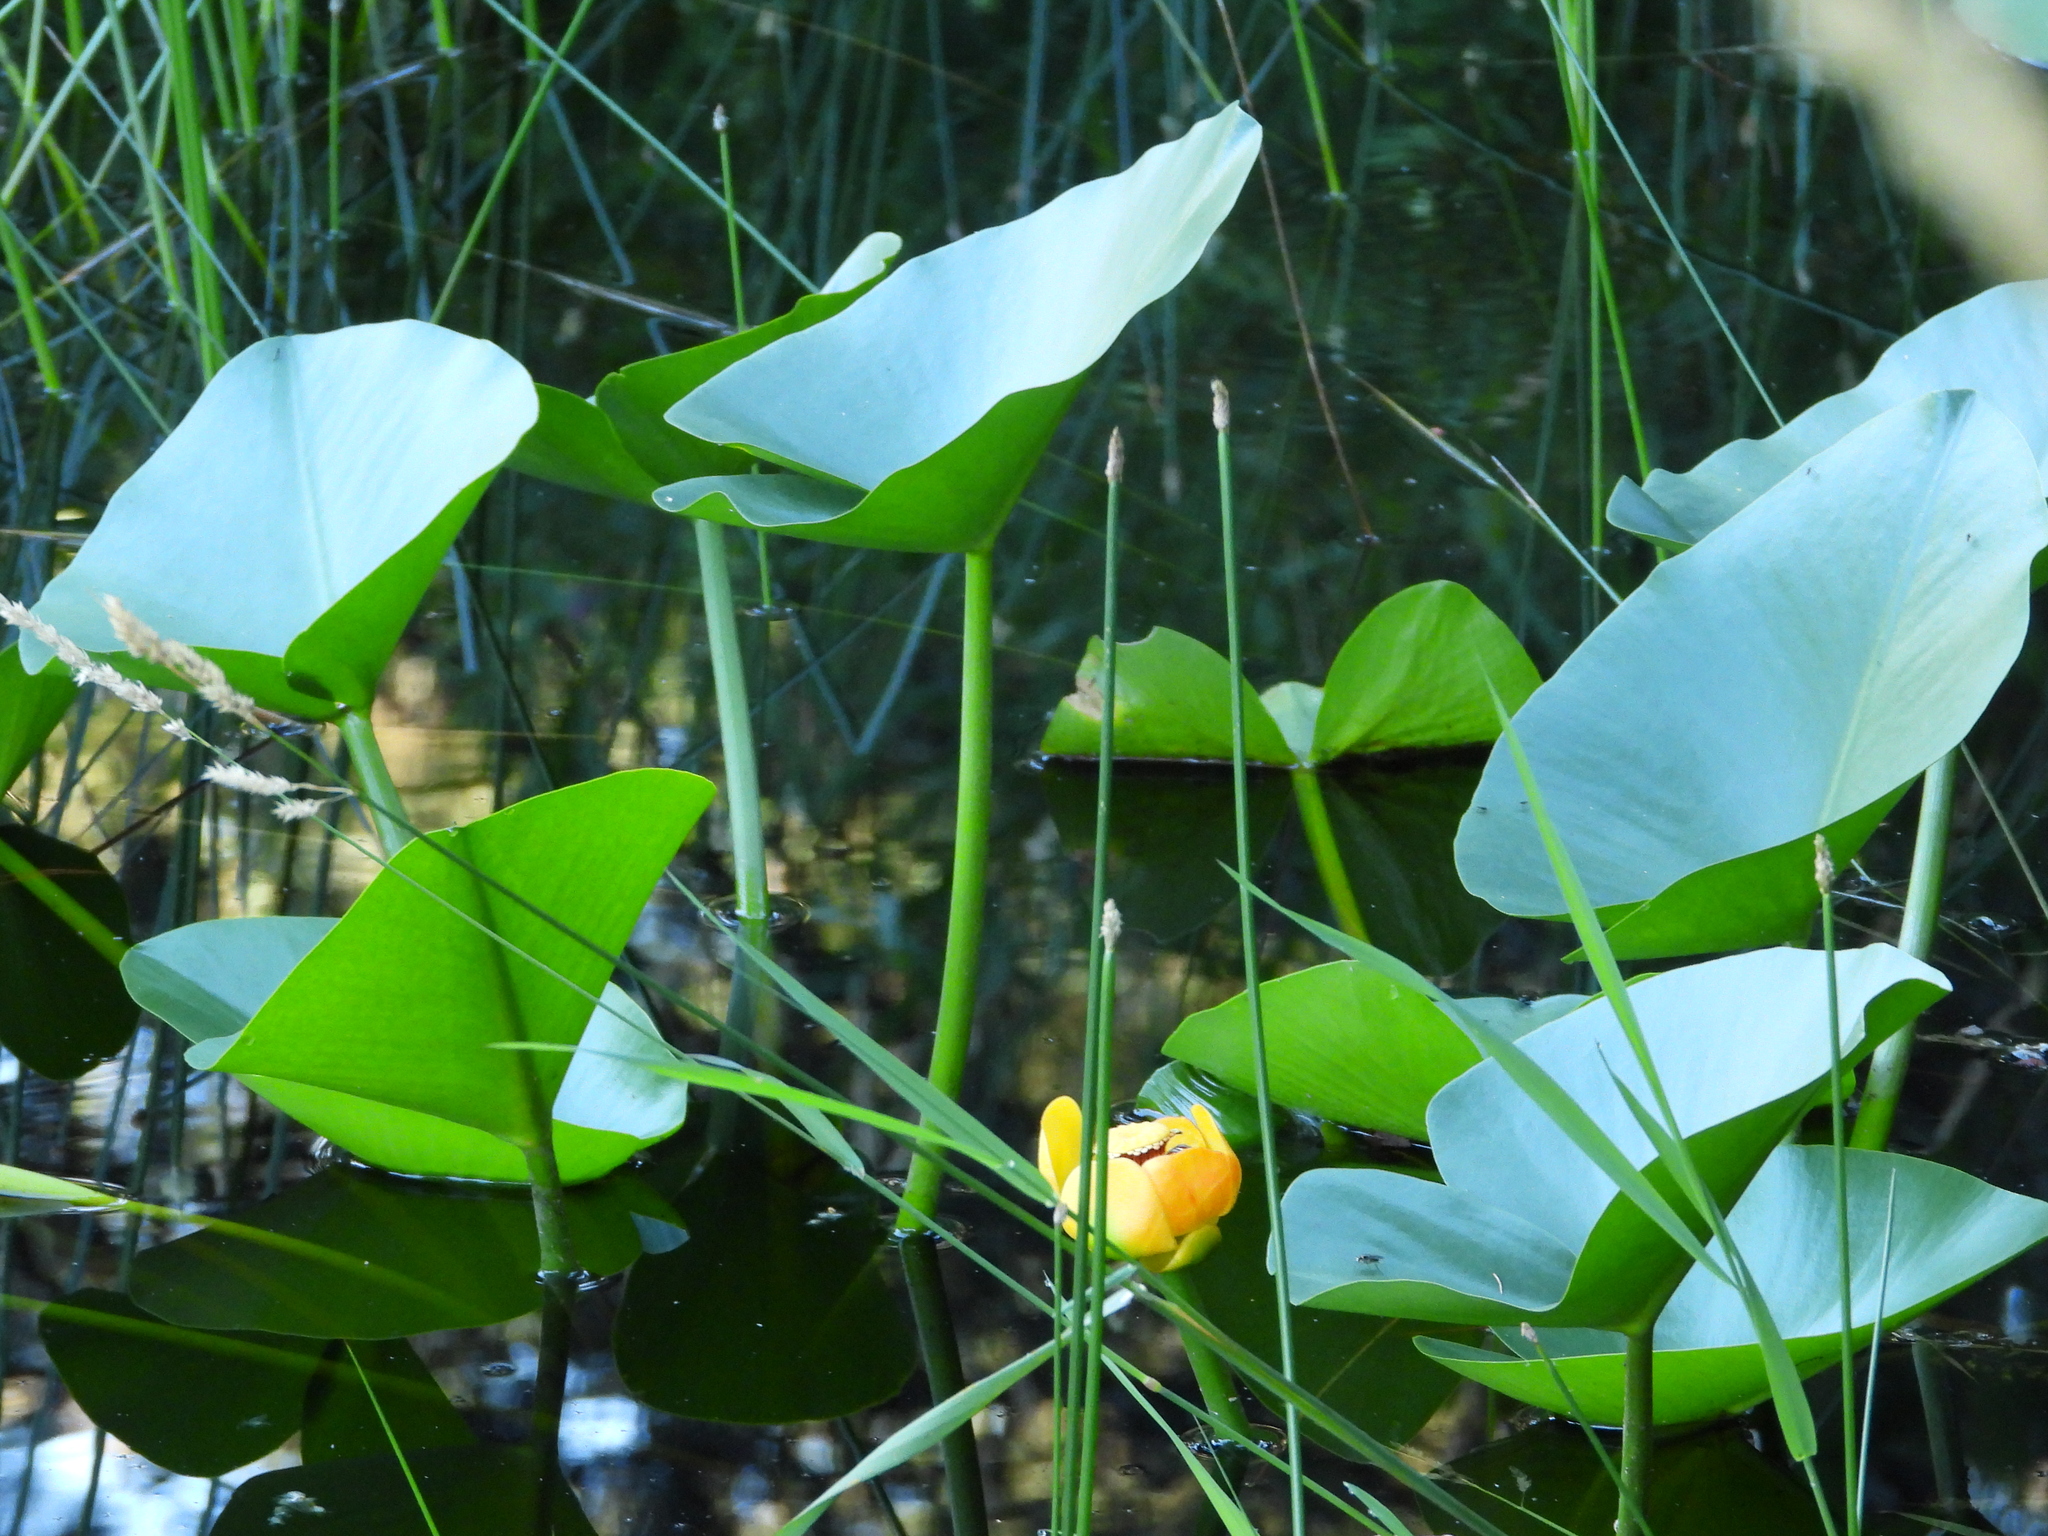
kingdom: Plantae
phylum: Tracheophyta
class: Magnoliopsida
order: Nymphaeales
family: Nymphaeaceae
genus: Nuphar
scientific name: Nuphar polysepala
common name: Rocky mountain cow-lily
